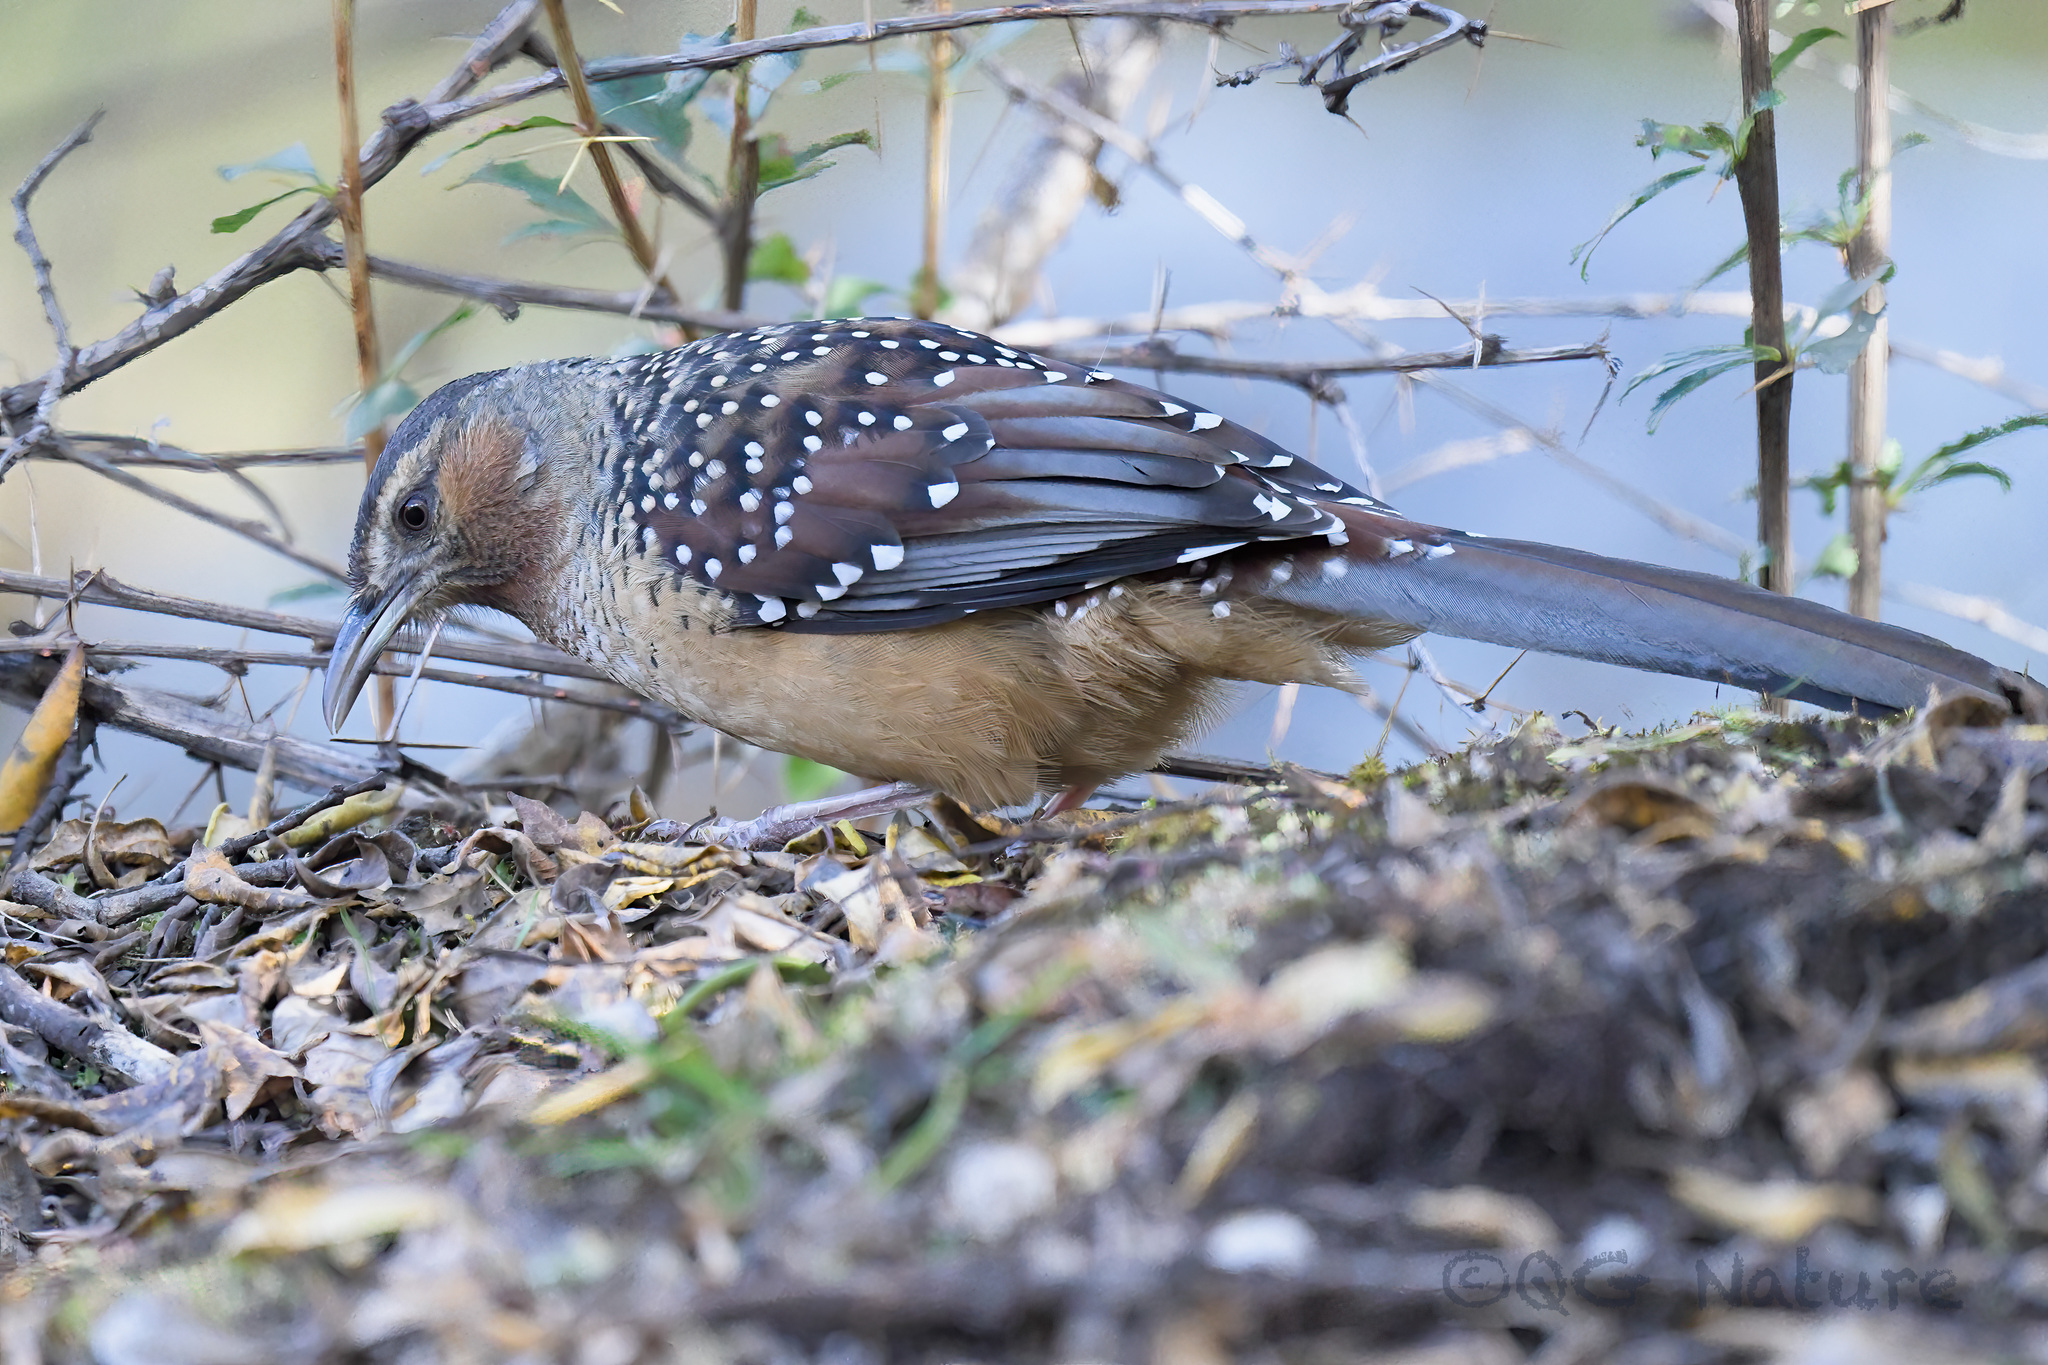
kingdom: Animalia
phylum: Chordata
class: Aves
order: Passeriformes
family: Leiothrichidae
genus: Garrulax
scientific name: Garrulax maximus
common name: Giant laughingthrush
